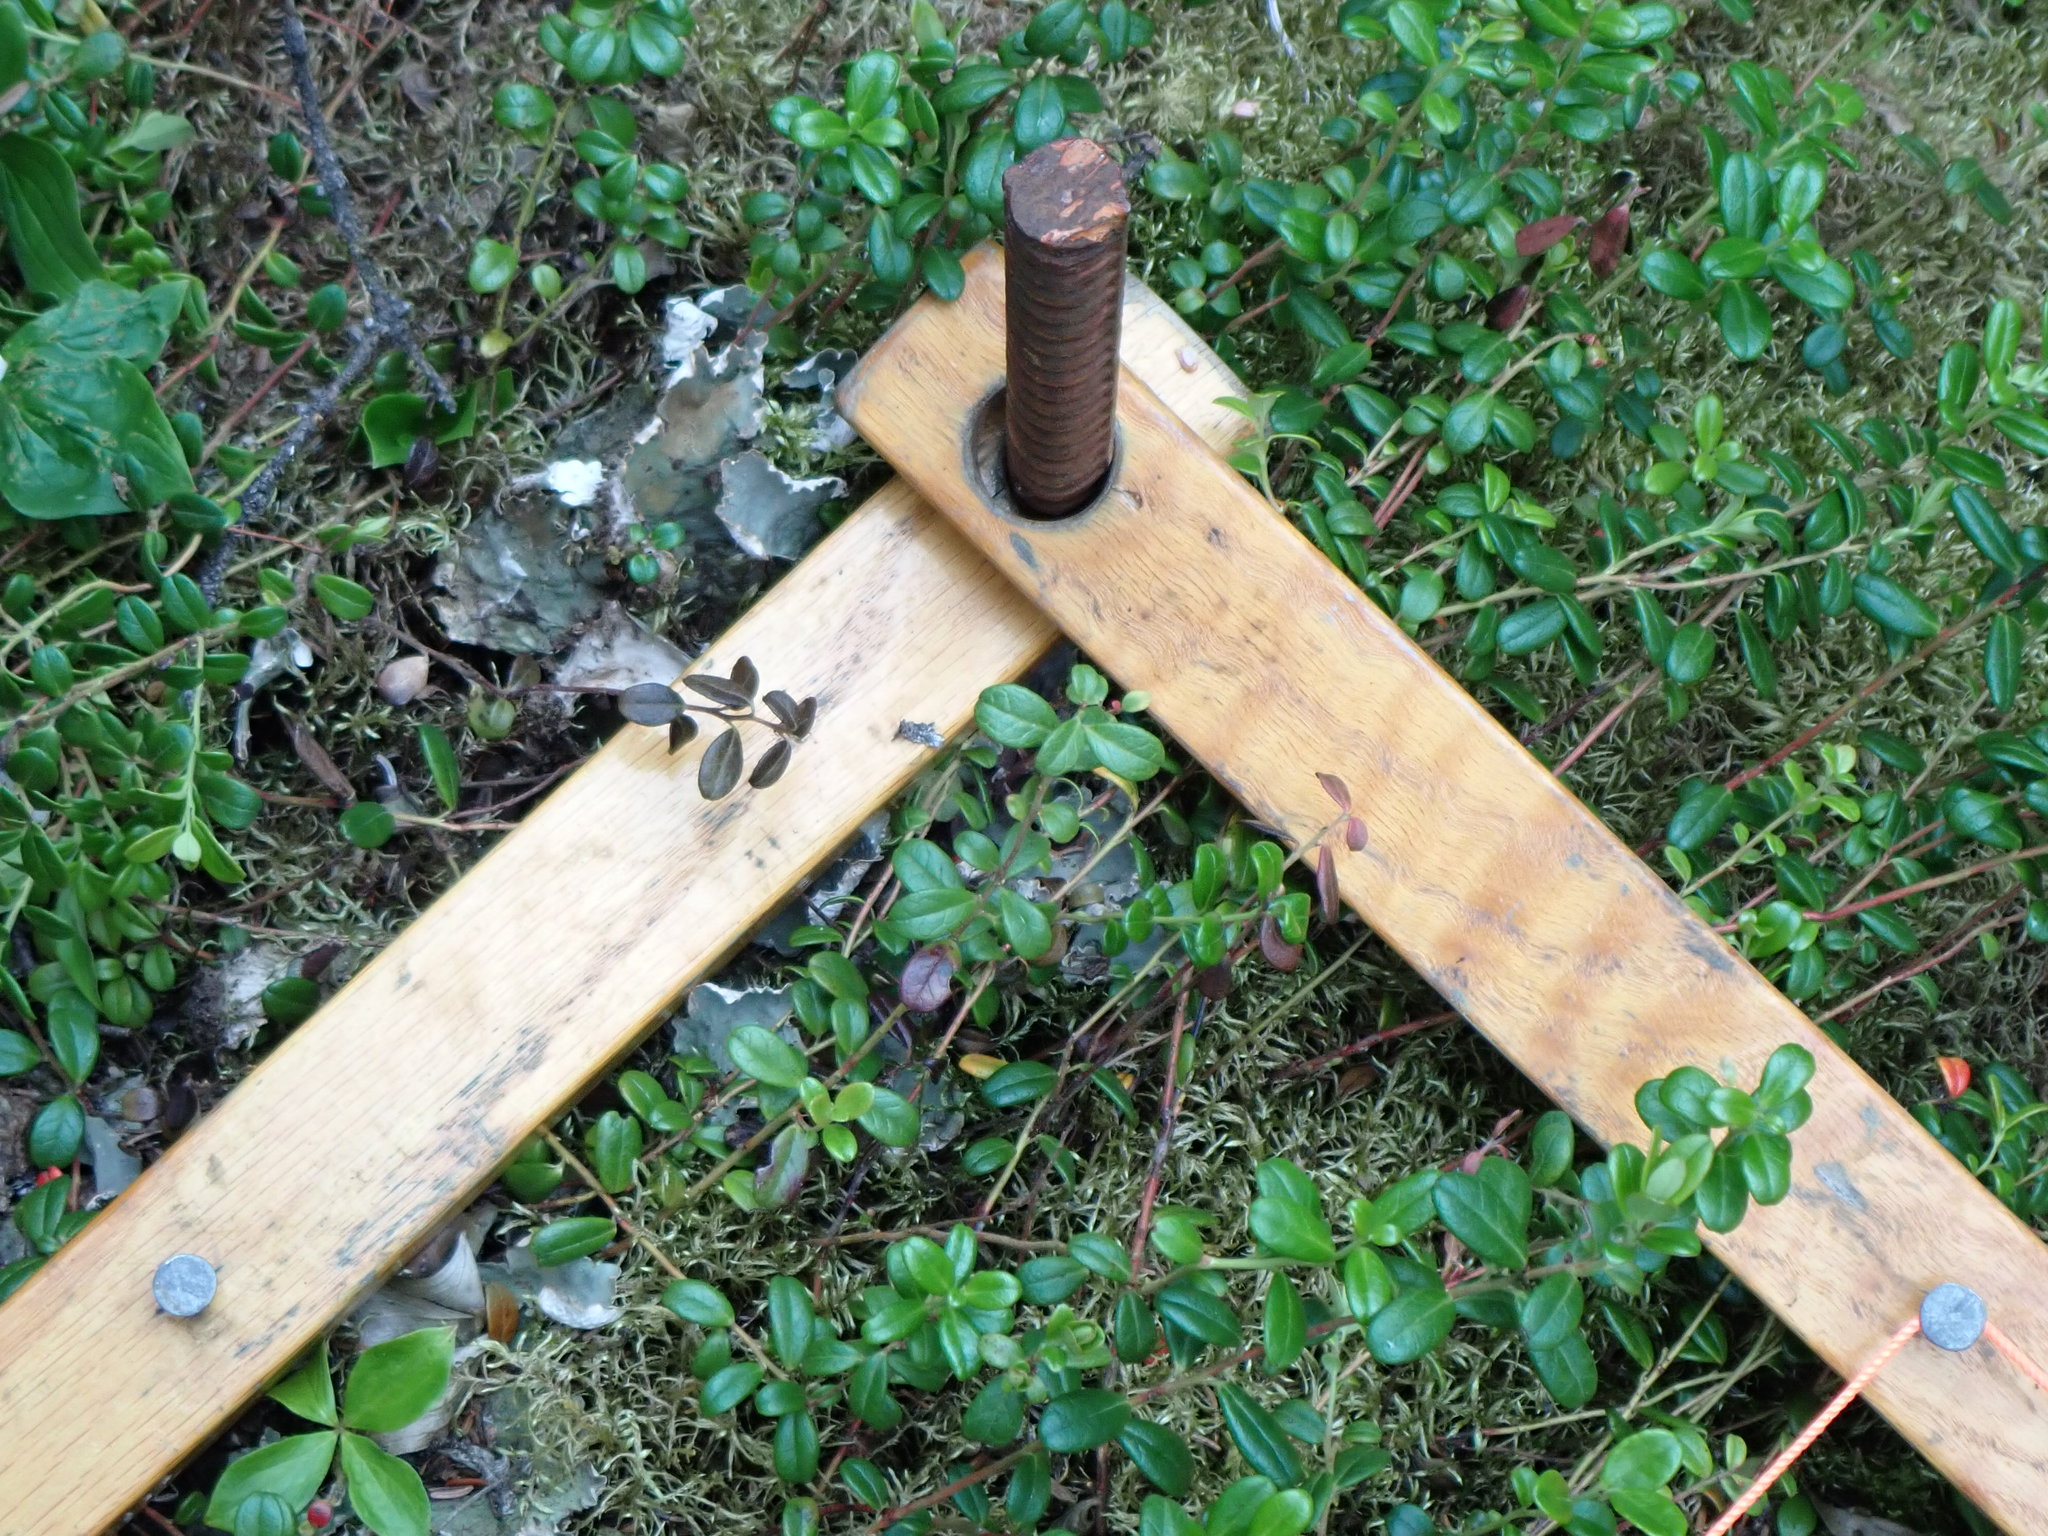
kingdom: Plantae
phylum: Tracheophyta
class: Magnoliopsida
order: Ericales
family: Ericaceae
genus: Vaccinium
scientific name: Vaccinium vitis-idaea
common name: Cowberry
